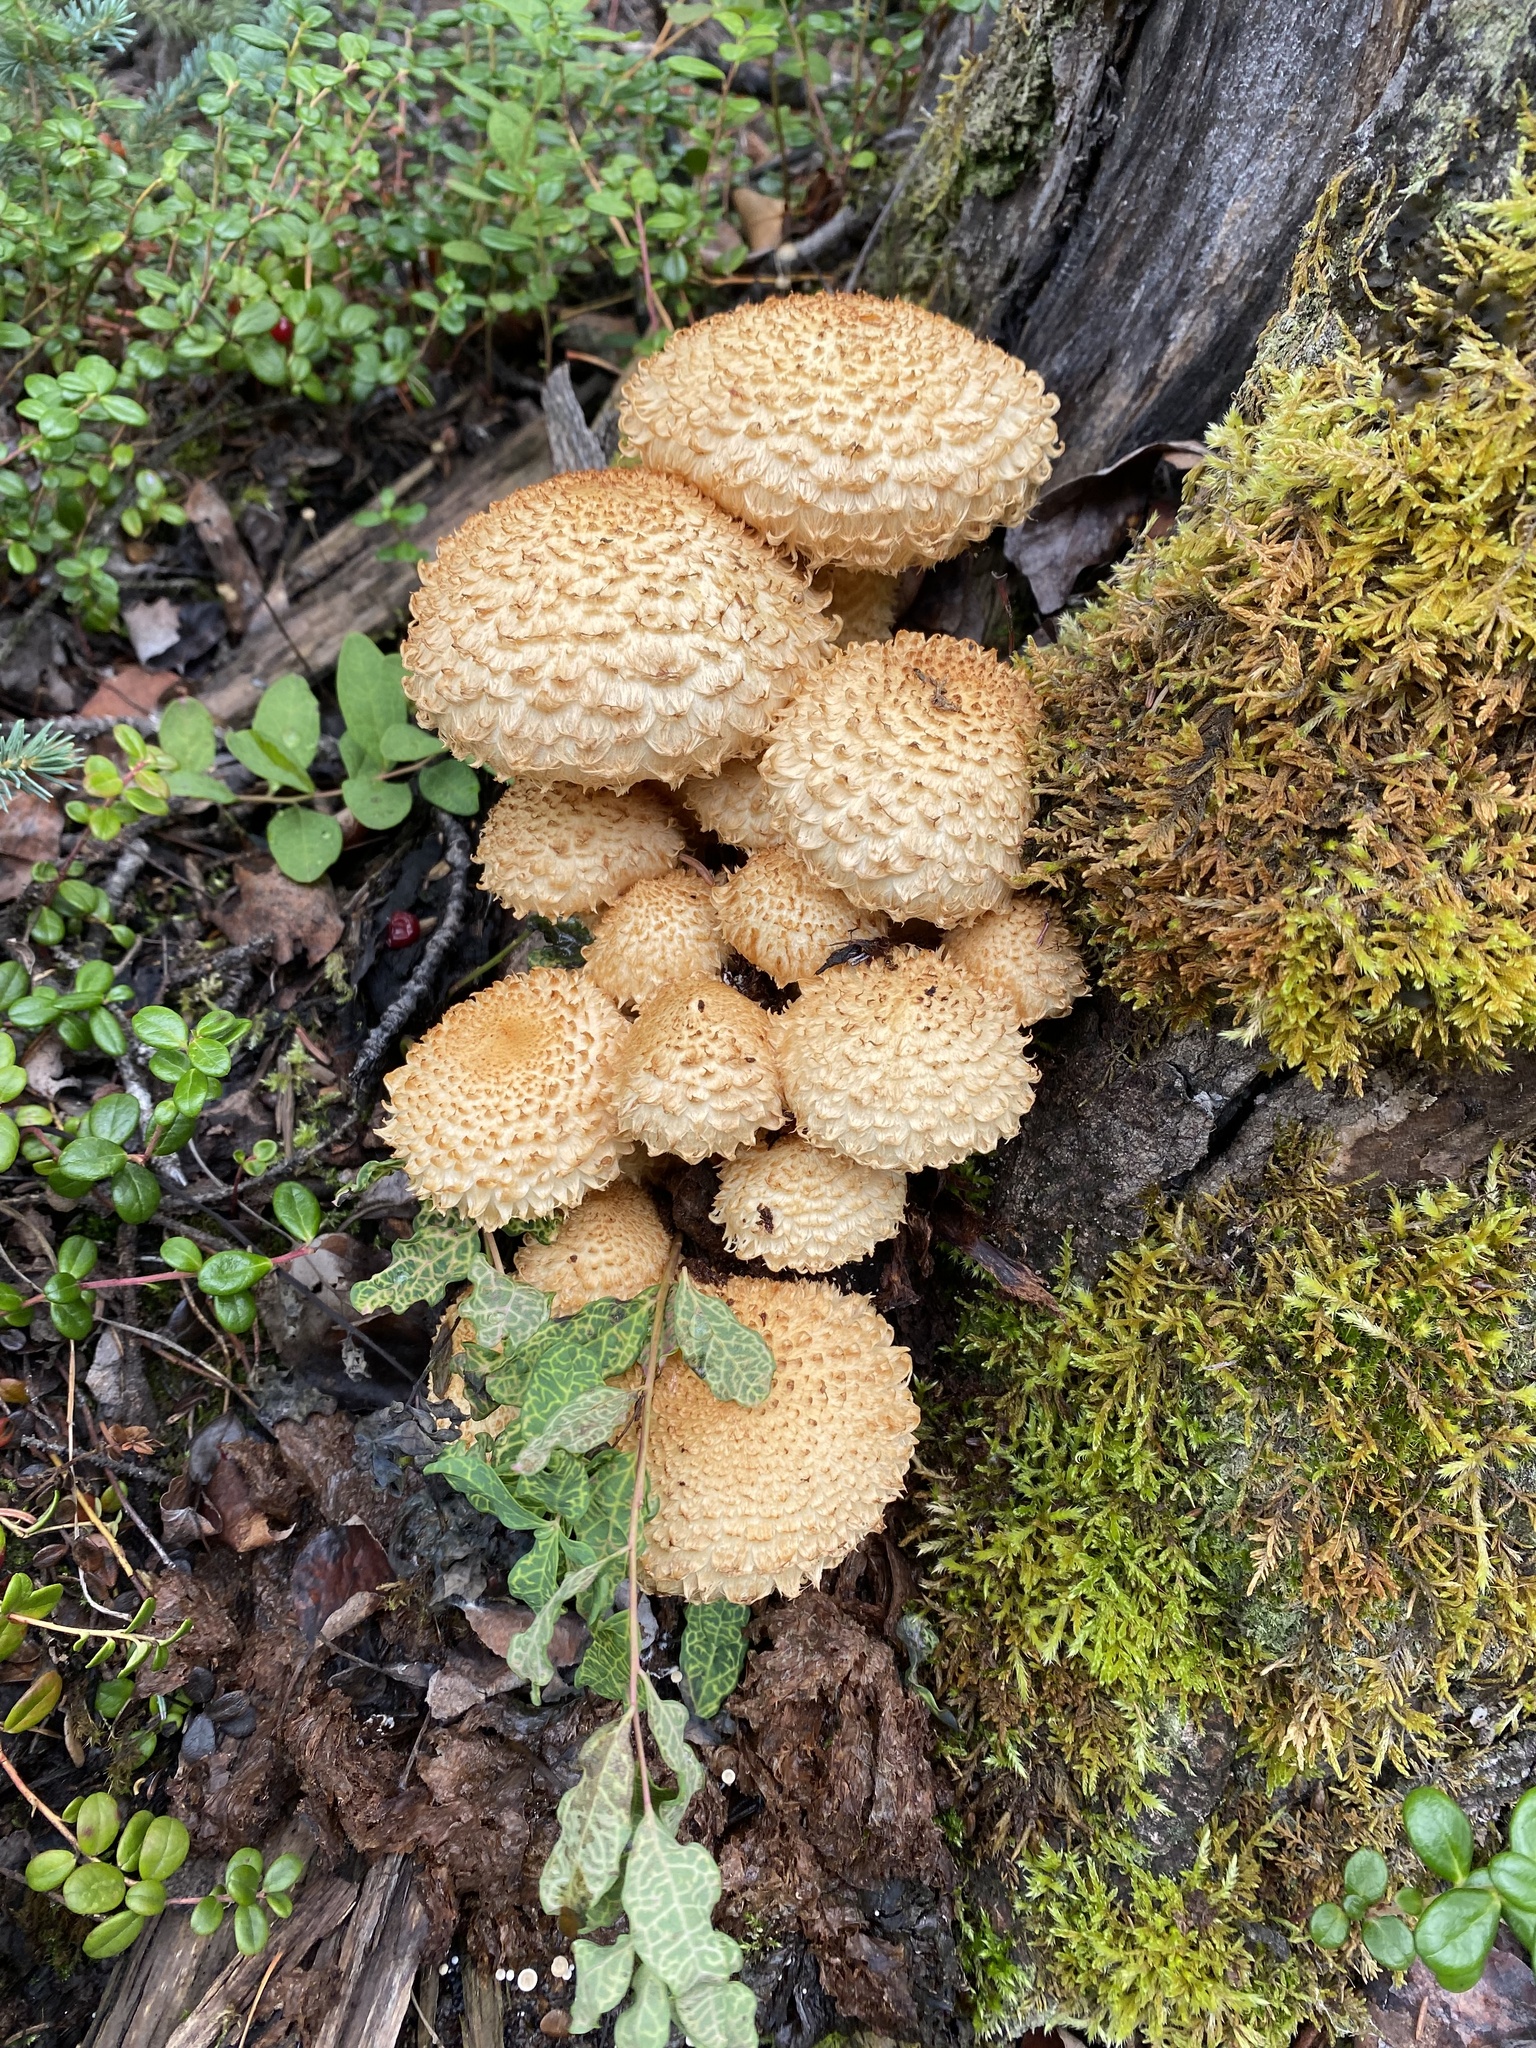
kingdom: Fungi
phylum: Basidiomycota
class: Agaricomycetes
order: Agaricales
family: Strophariaceae
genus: Pholiota
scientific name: Pholiota squarrosa
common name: Shaggy pholiota
